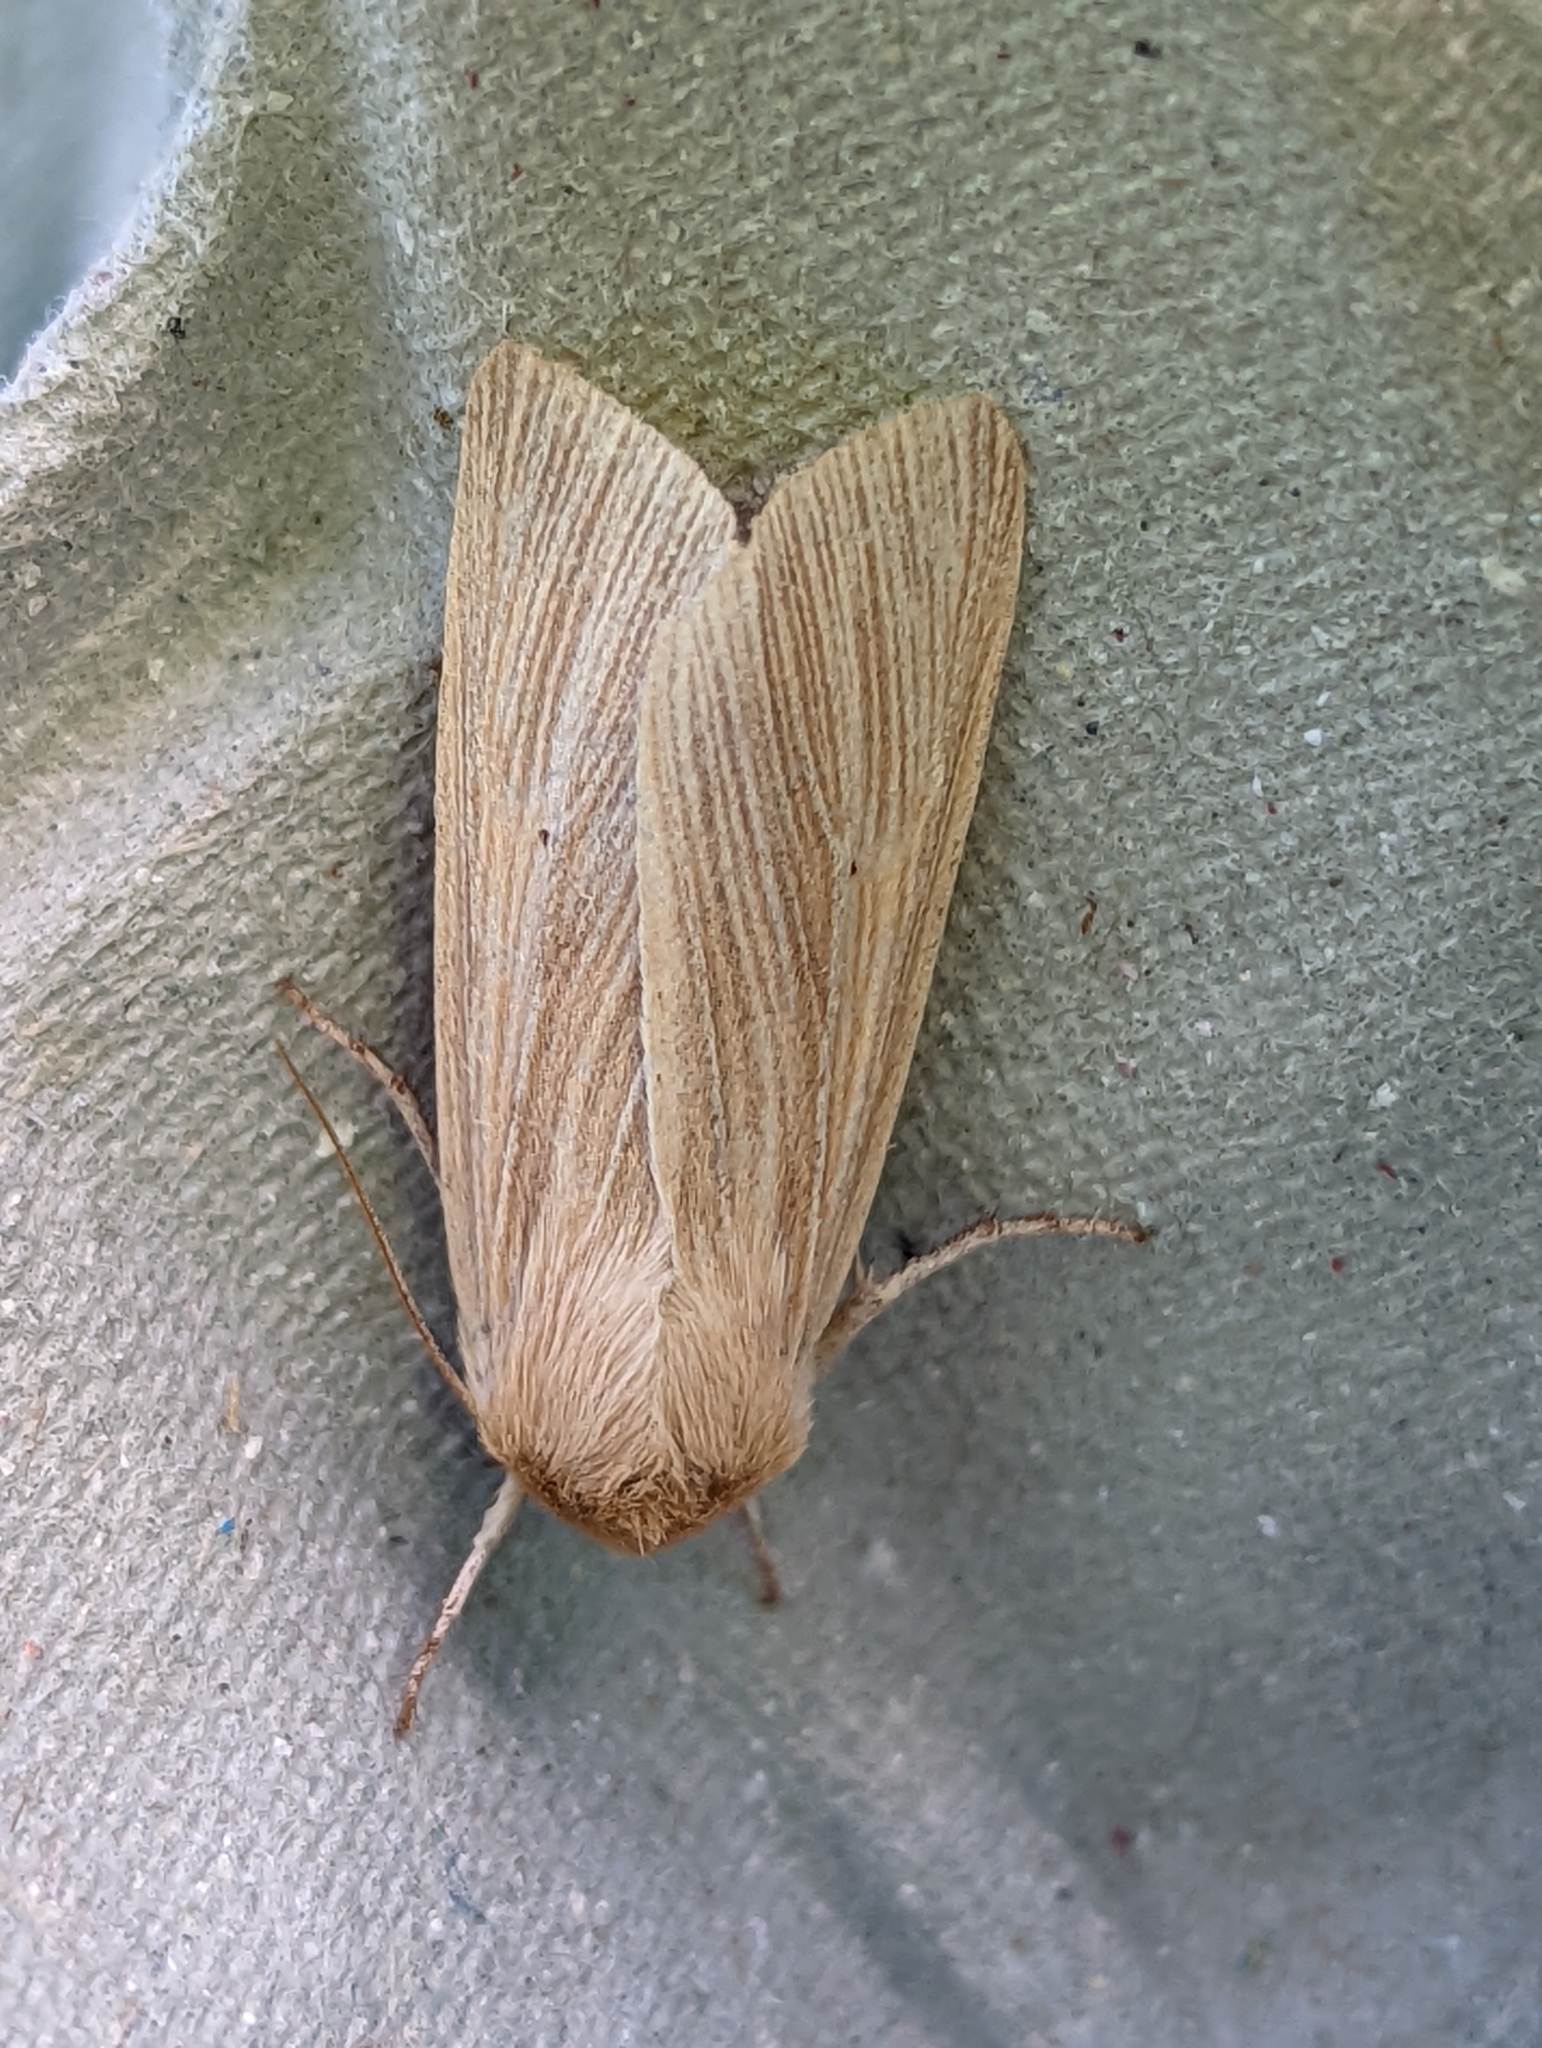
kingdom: Animalia
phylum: Arthropoda
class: Insecta
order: Lepidoptera
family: Noctuidae
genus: Mythimna
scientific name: Mythimna pallens
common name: Common wainscot
